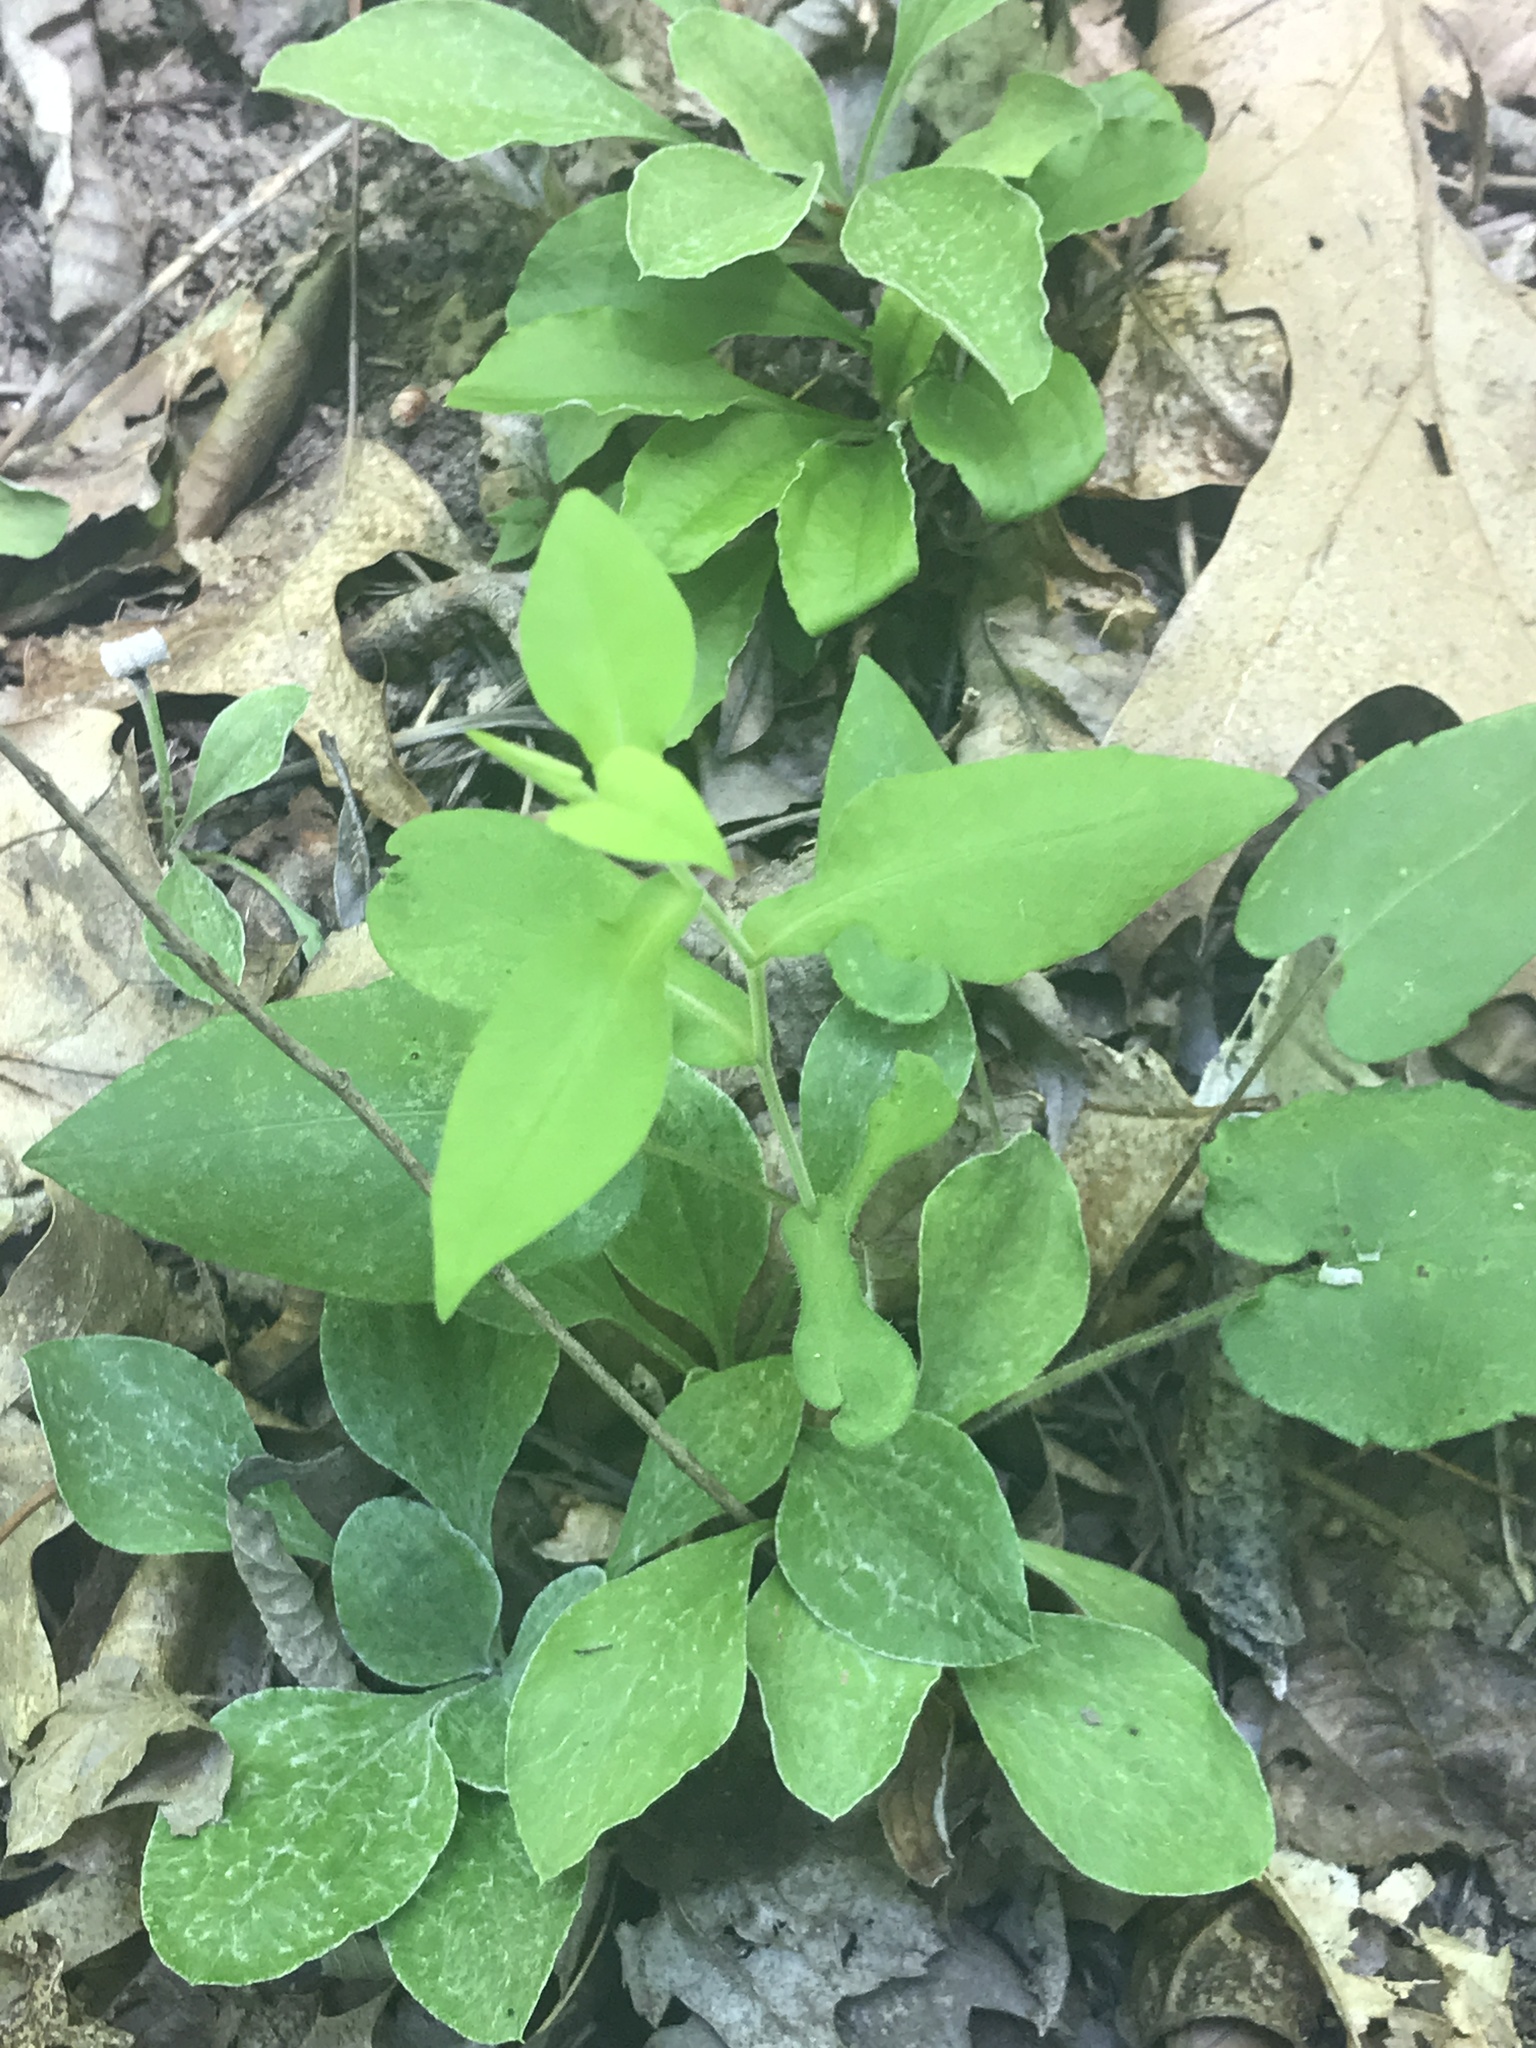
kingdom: Plantae
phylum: Tracheophyta
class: Magnoliopsida
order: Asterales
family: Asteraceae
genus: Symphyotrichum
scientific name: Symphyotrichum undulatum
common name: Clasping heart-leaf aster
